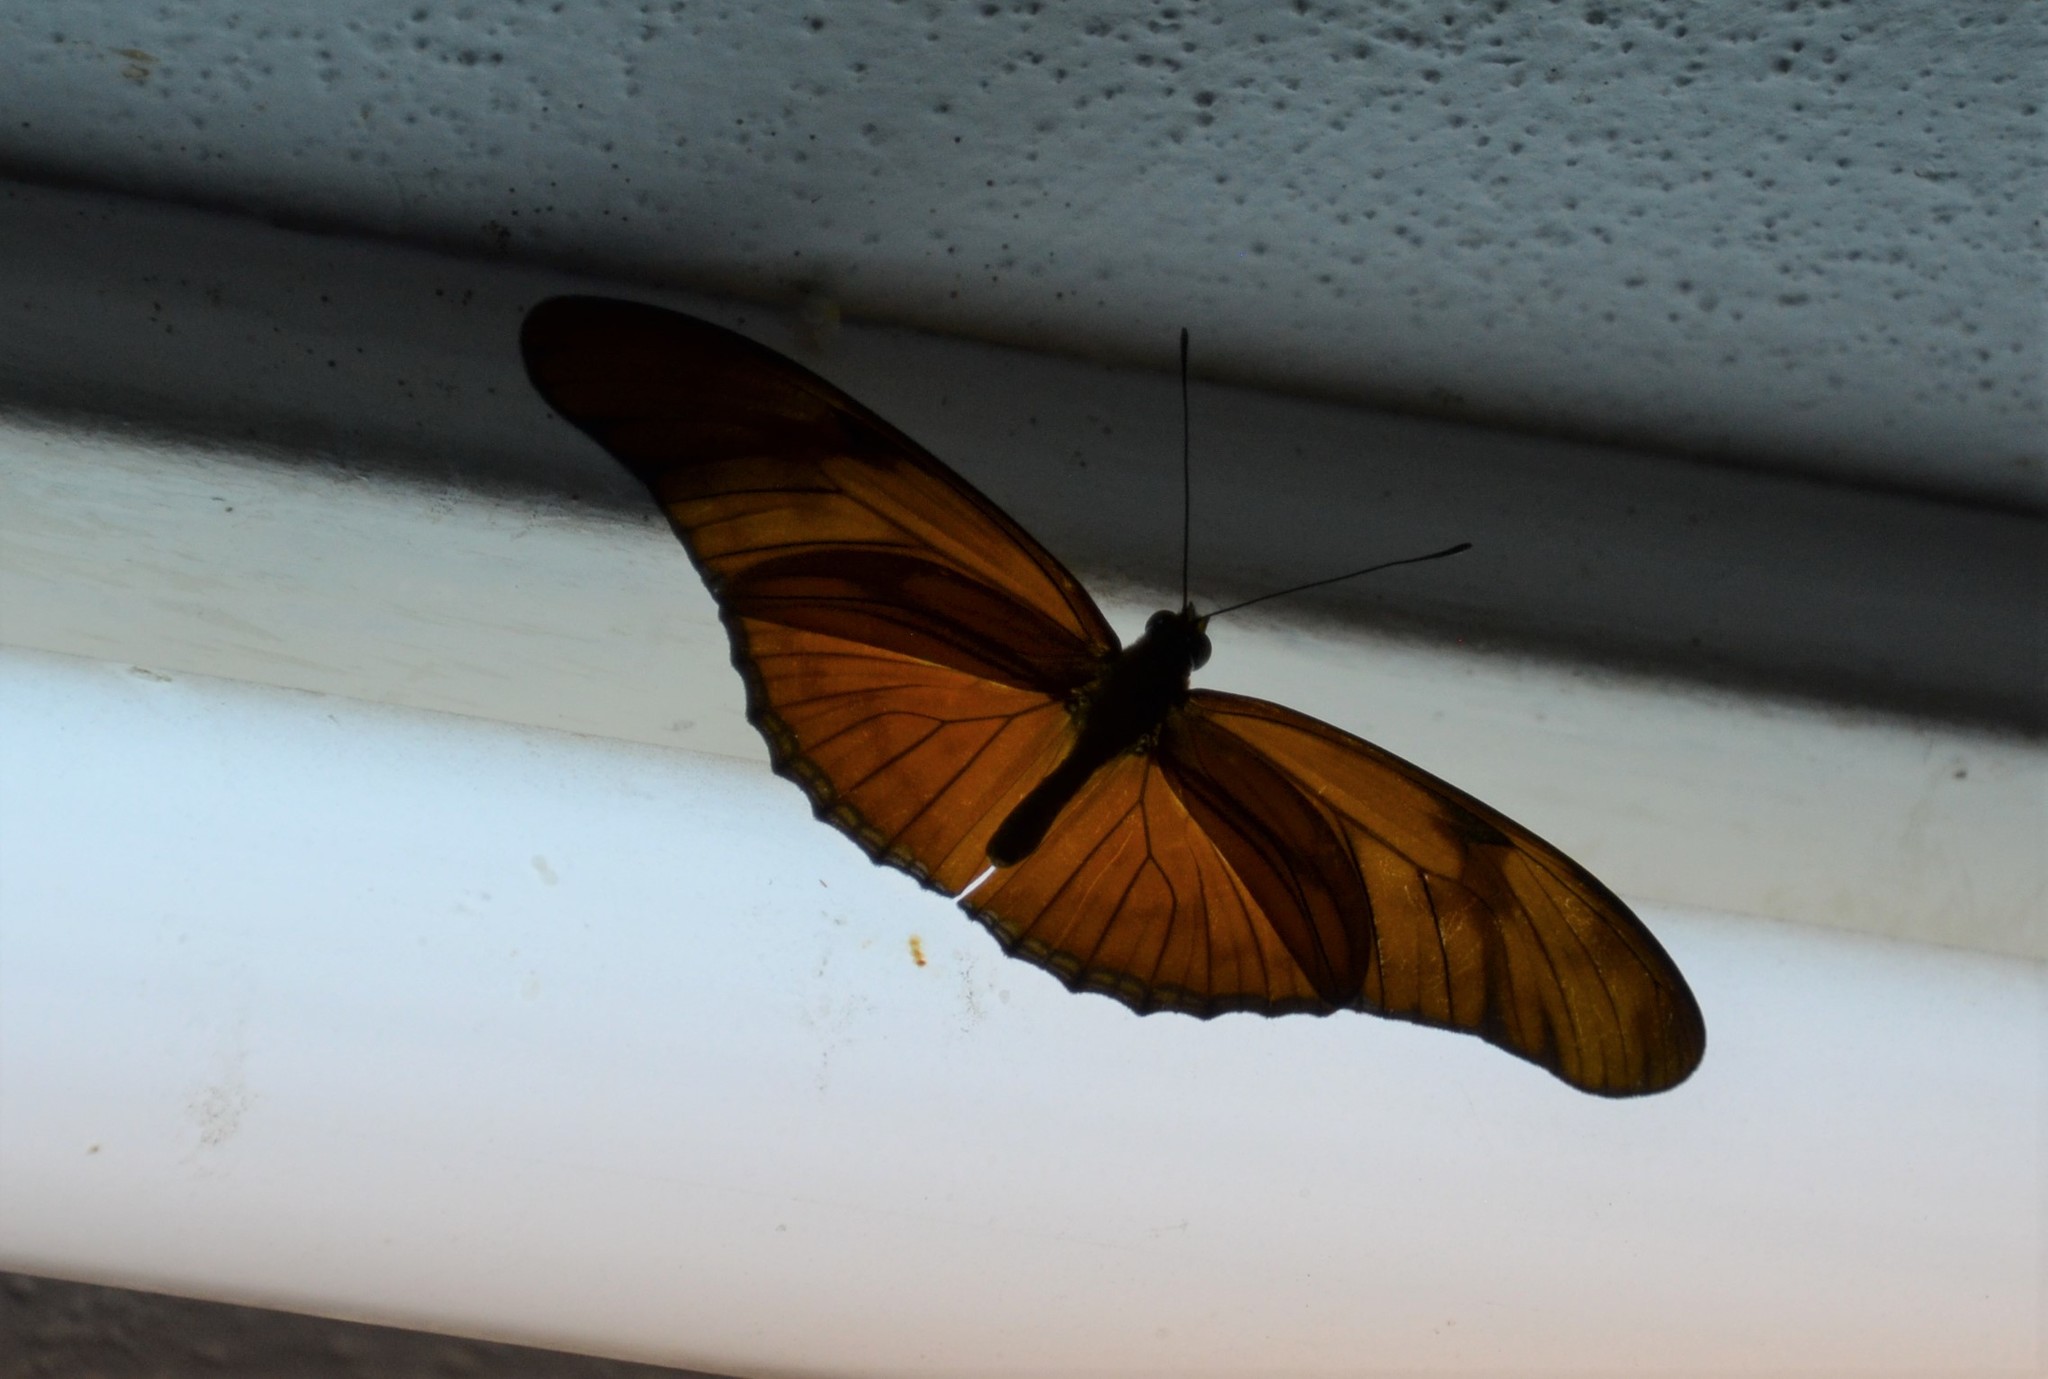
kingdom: Animalia
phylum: Arthropoda
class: Insecta
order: Lepidoptera
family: Nymphalidae
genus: Dryas
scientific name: Dryas iulia
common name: Flambeau
